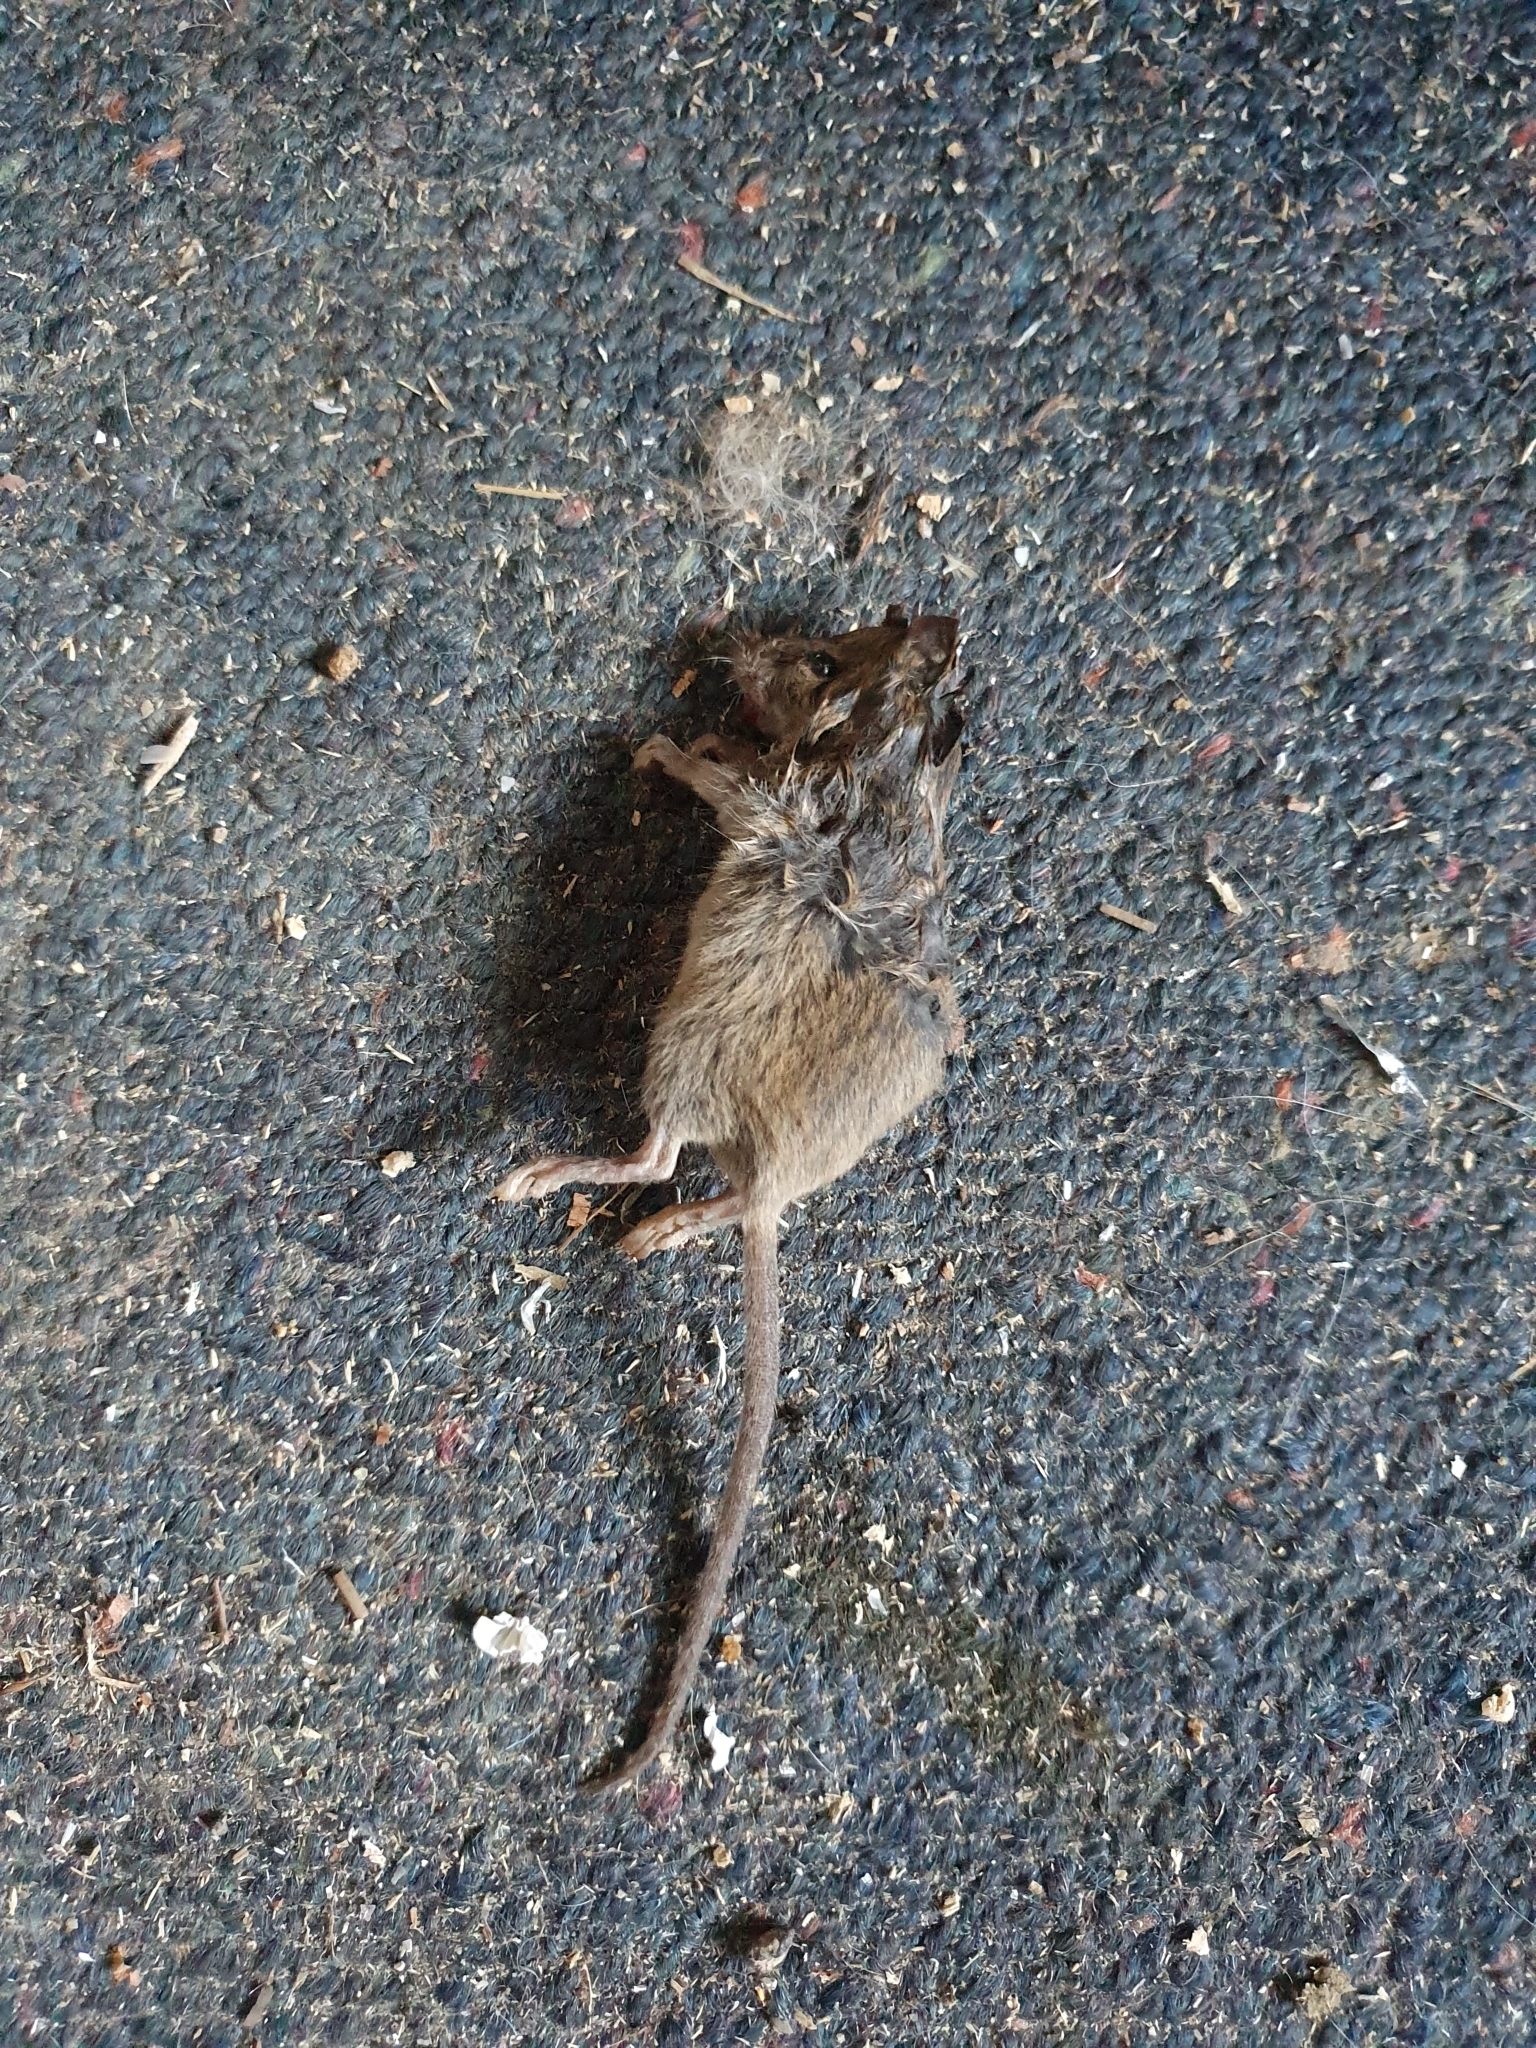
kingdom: Animalia
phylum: Chordata
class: Mammalia
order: Rodentia
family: Muridae
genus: Mus
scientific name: Mus musculus
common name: House mouse
